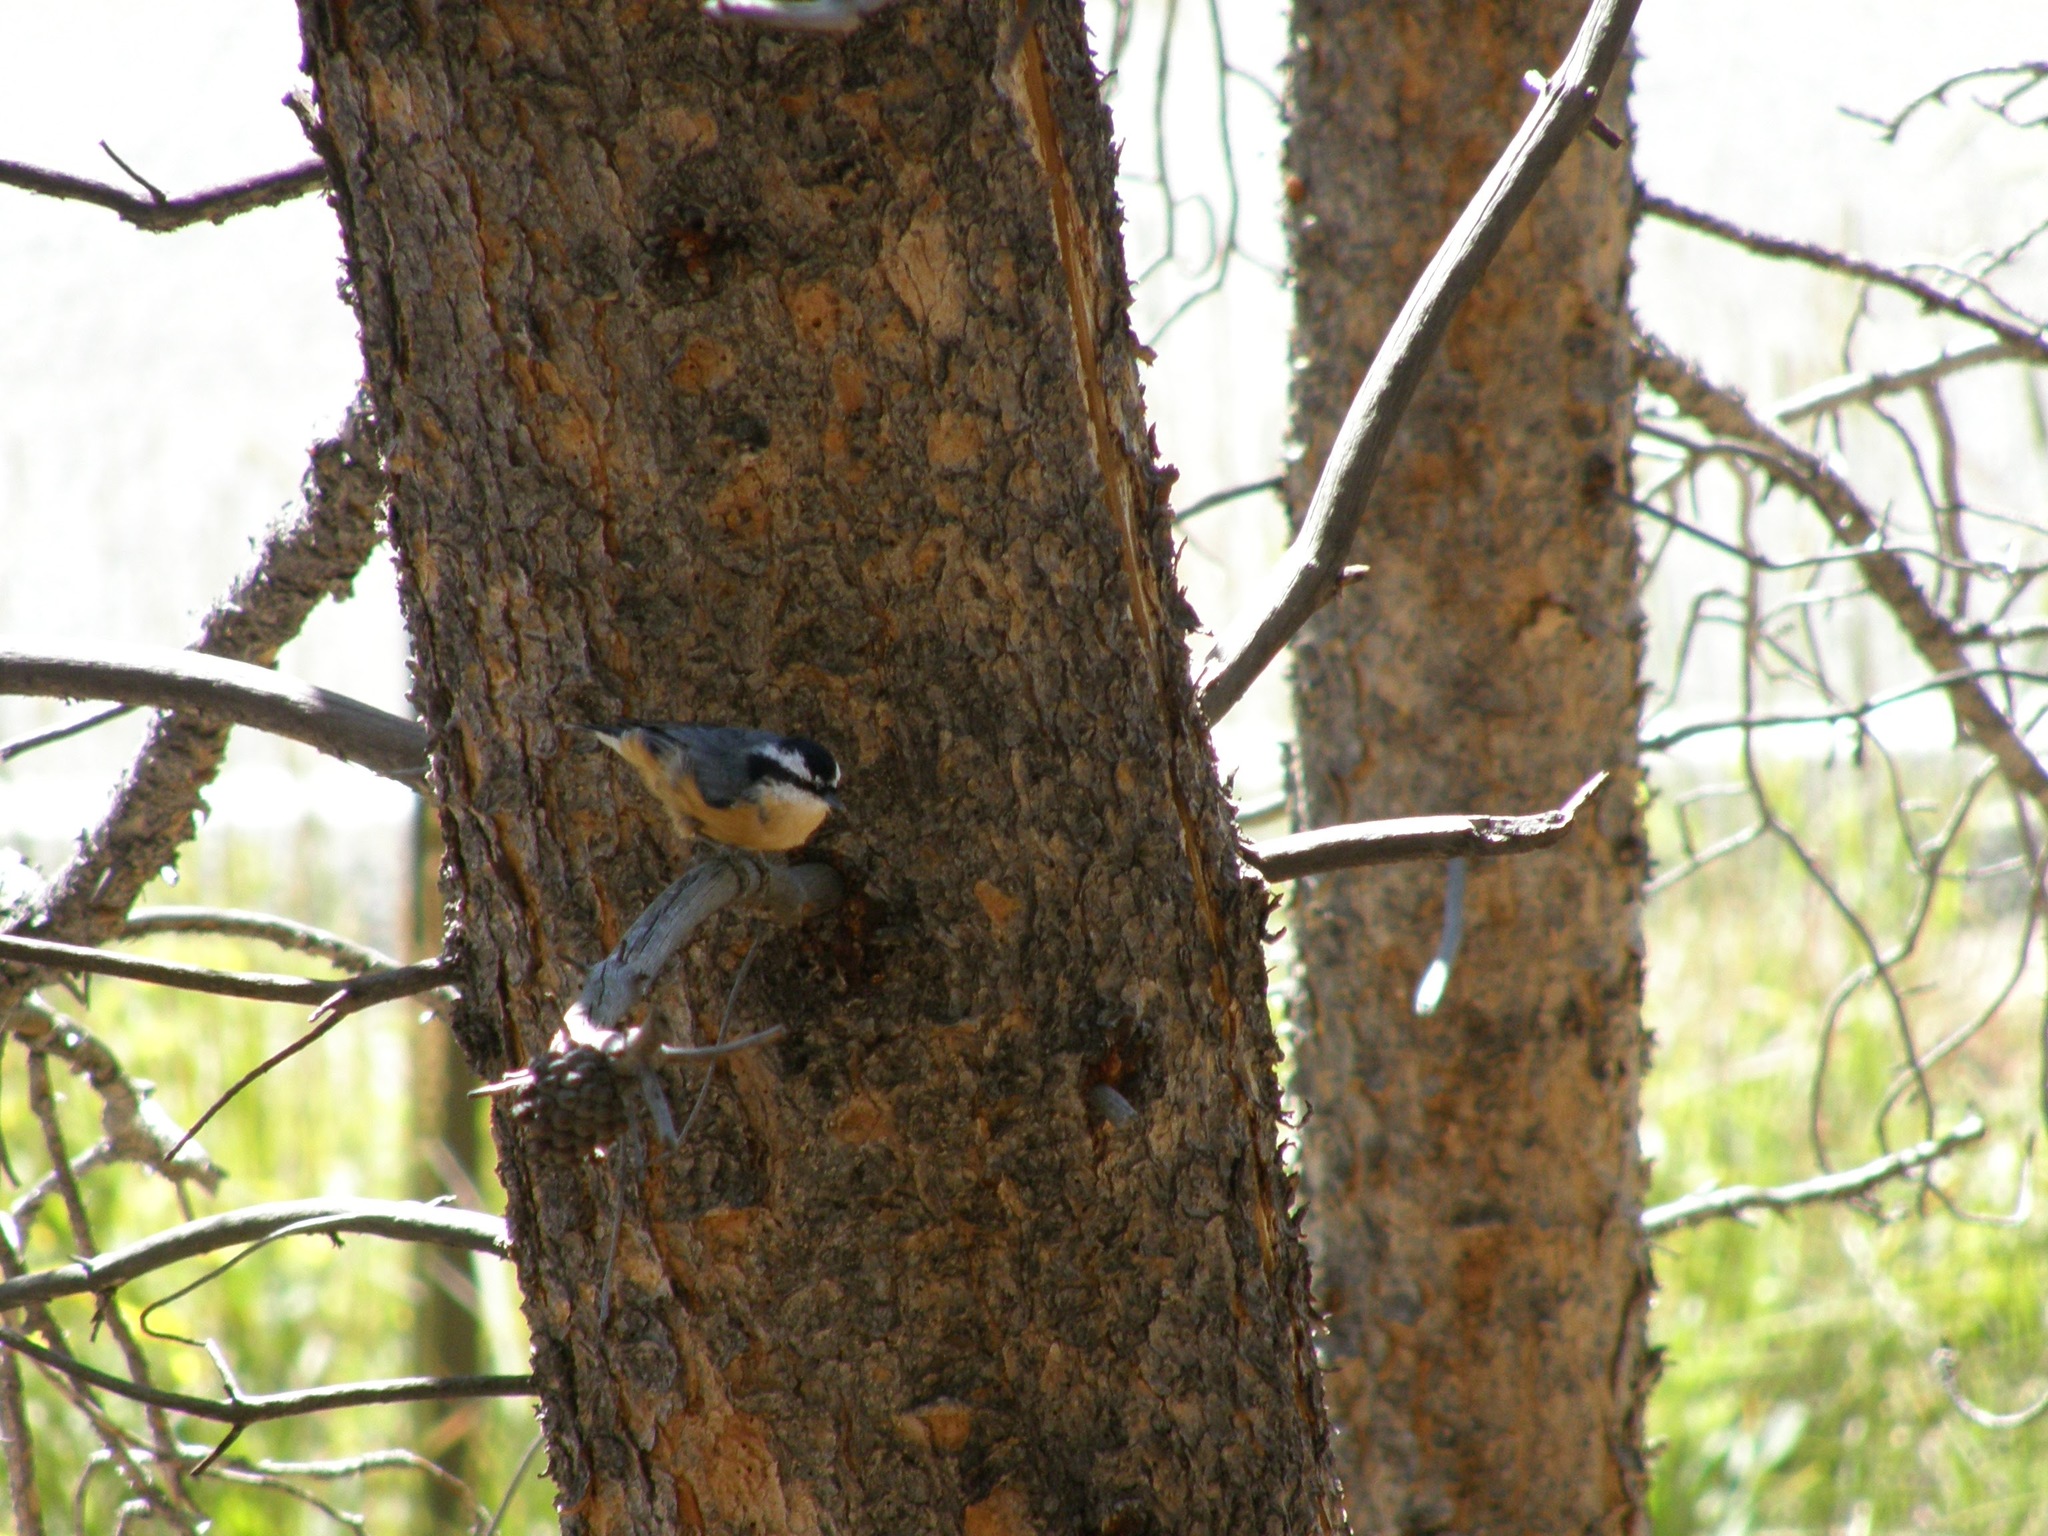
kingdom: Animalia
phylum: Chordata
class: Aves
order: Passeriformes
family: Sittidae
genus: Sitta
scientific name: Sitta canadensis
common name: Red-breasted nuthatch
